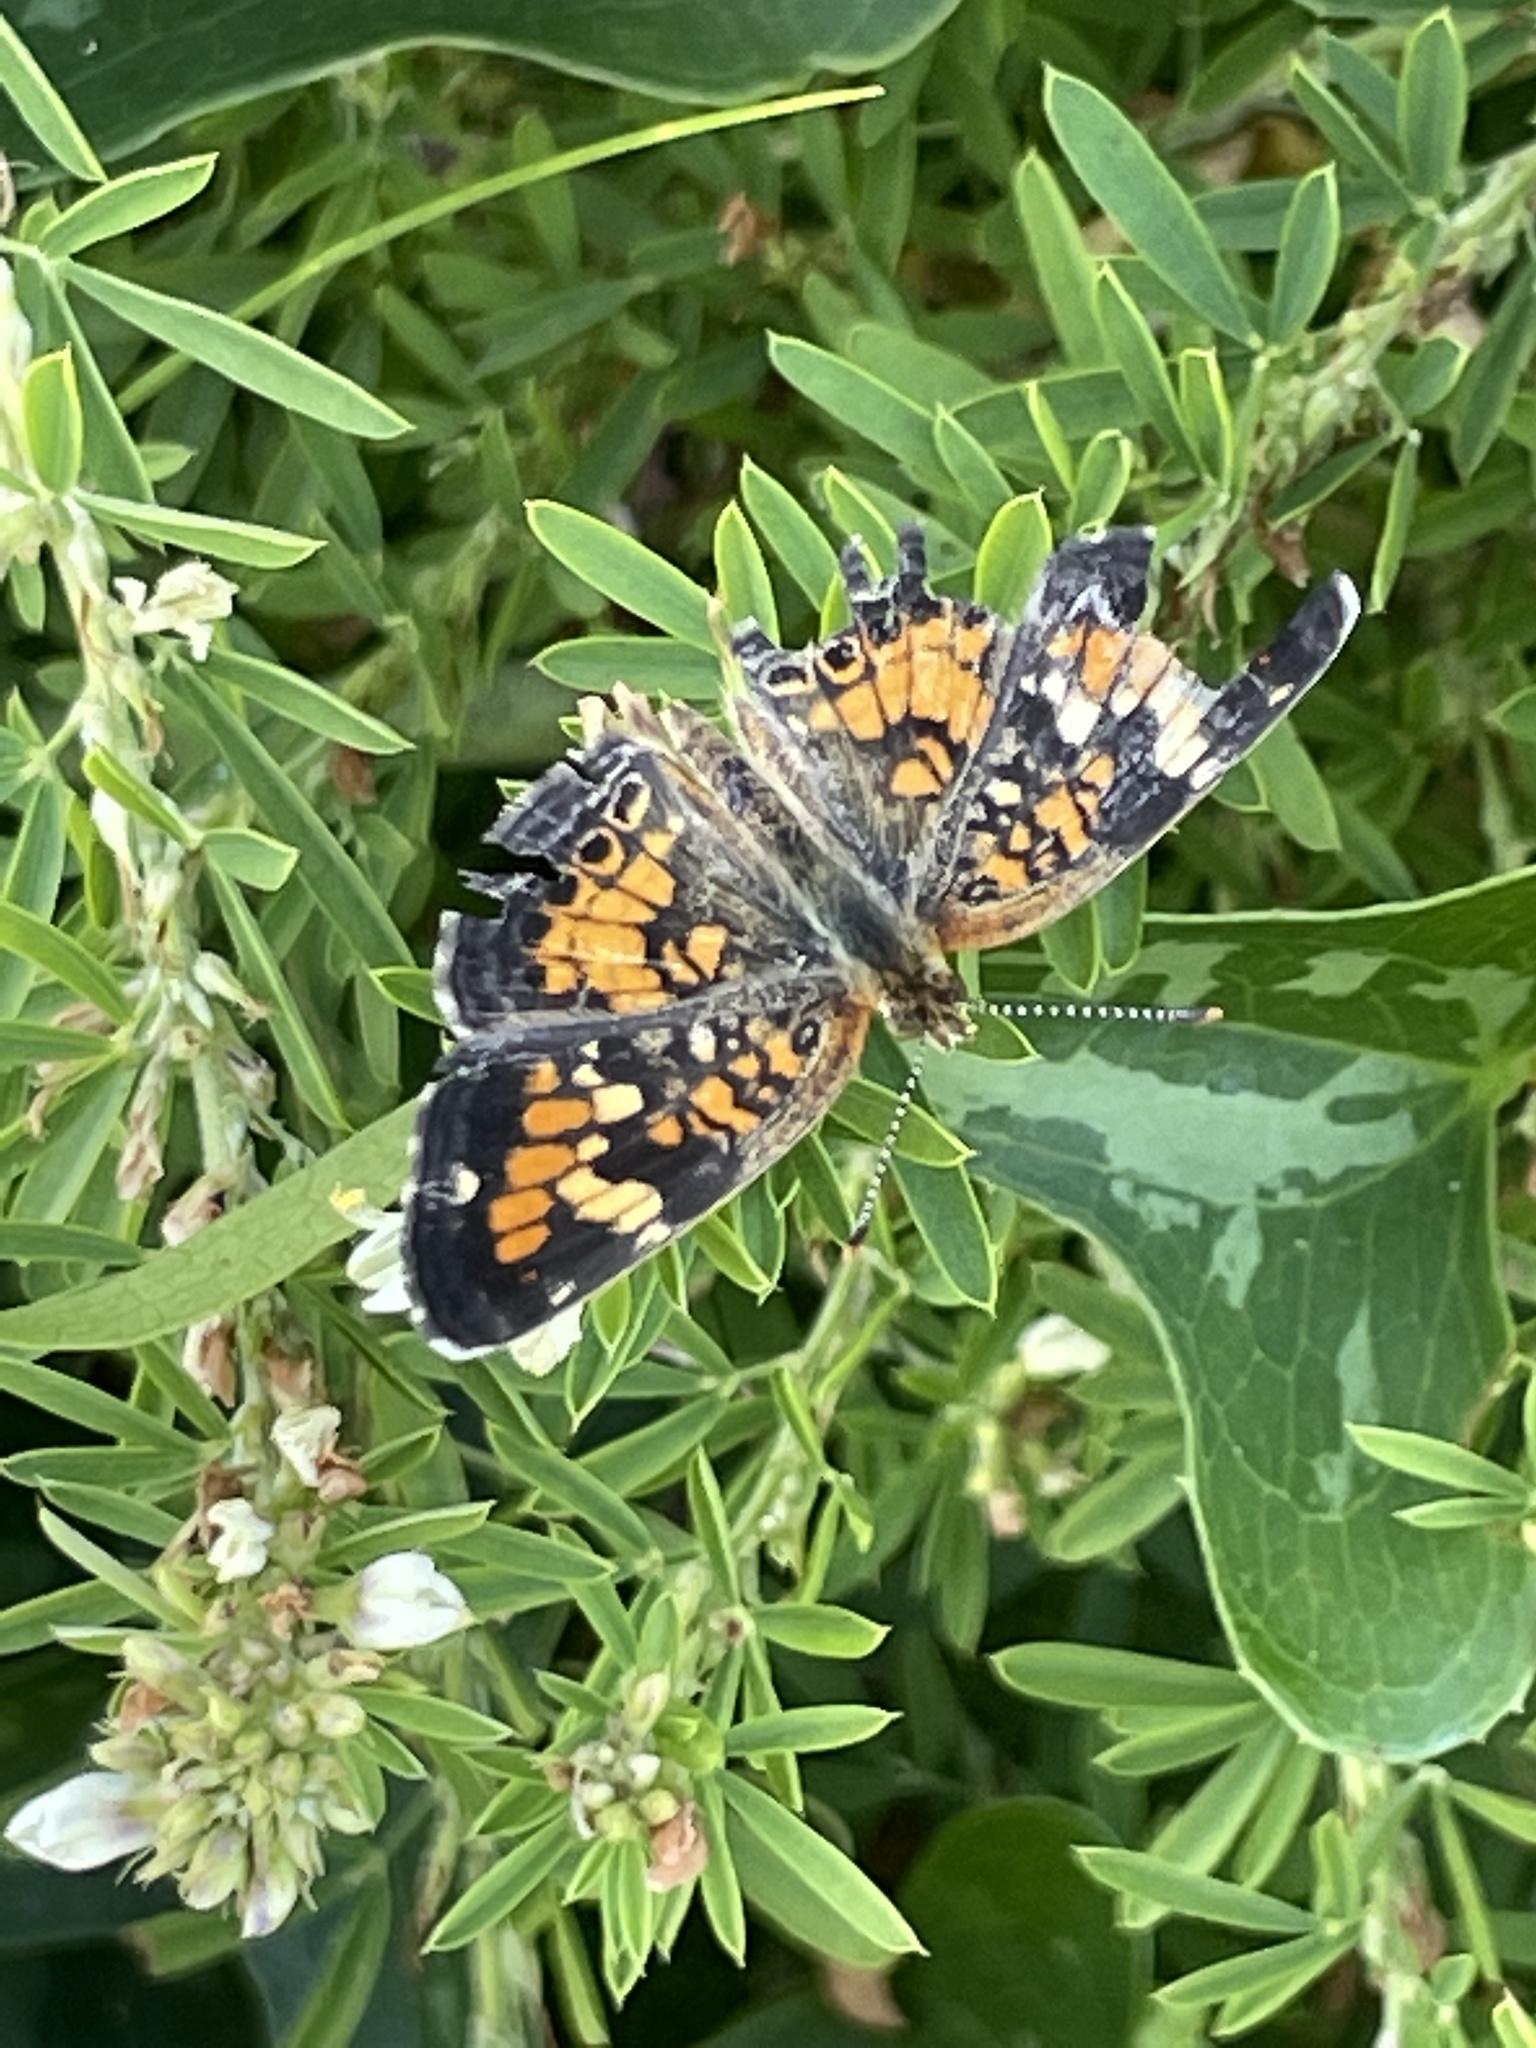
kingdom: Animalia
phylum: Arthropoda
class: Insecta
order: Lepidoptera
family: Nymphalidae
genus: Phyciodes
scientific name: Phyciodes phaon
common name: Phaon crescent
